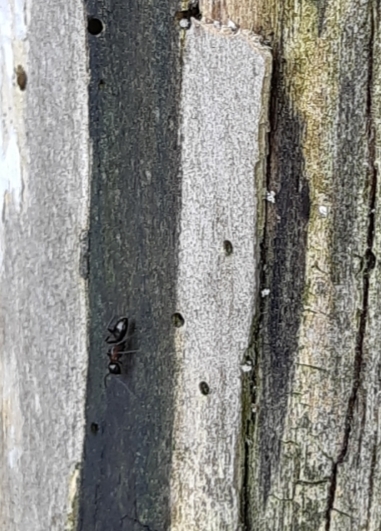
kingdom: Animalia
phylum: Arthropoda
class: Insecta
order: Hymenoptera
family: Formicidae
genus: Camponotus
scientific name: Camponotus novaeboracensis
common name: New york carpenter ant
